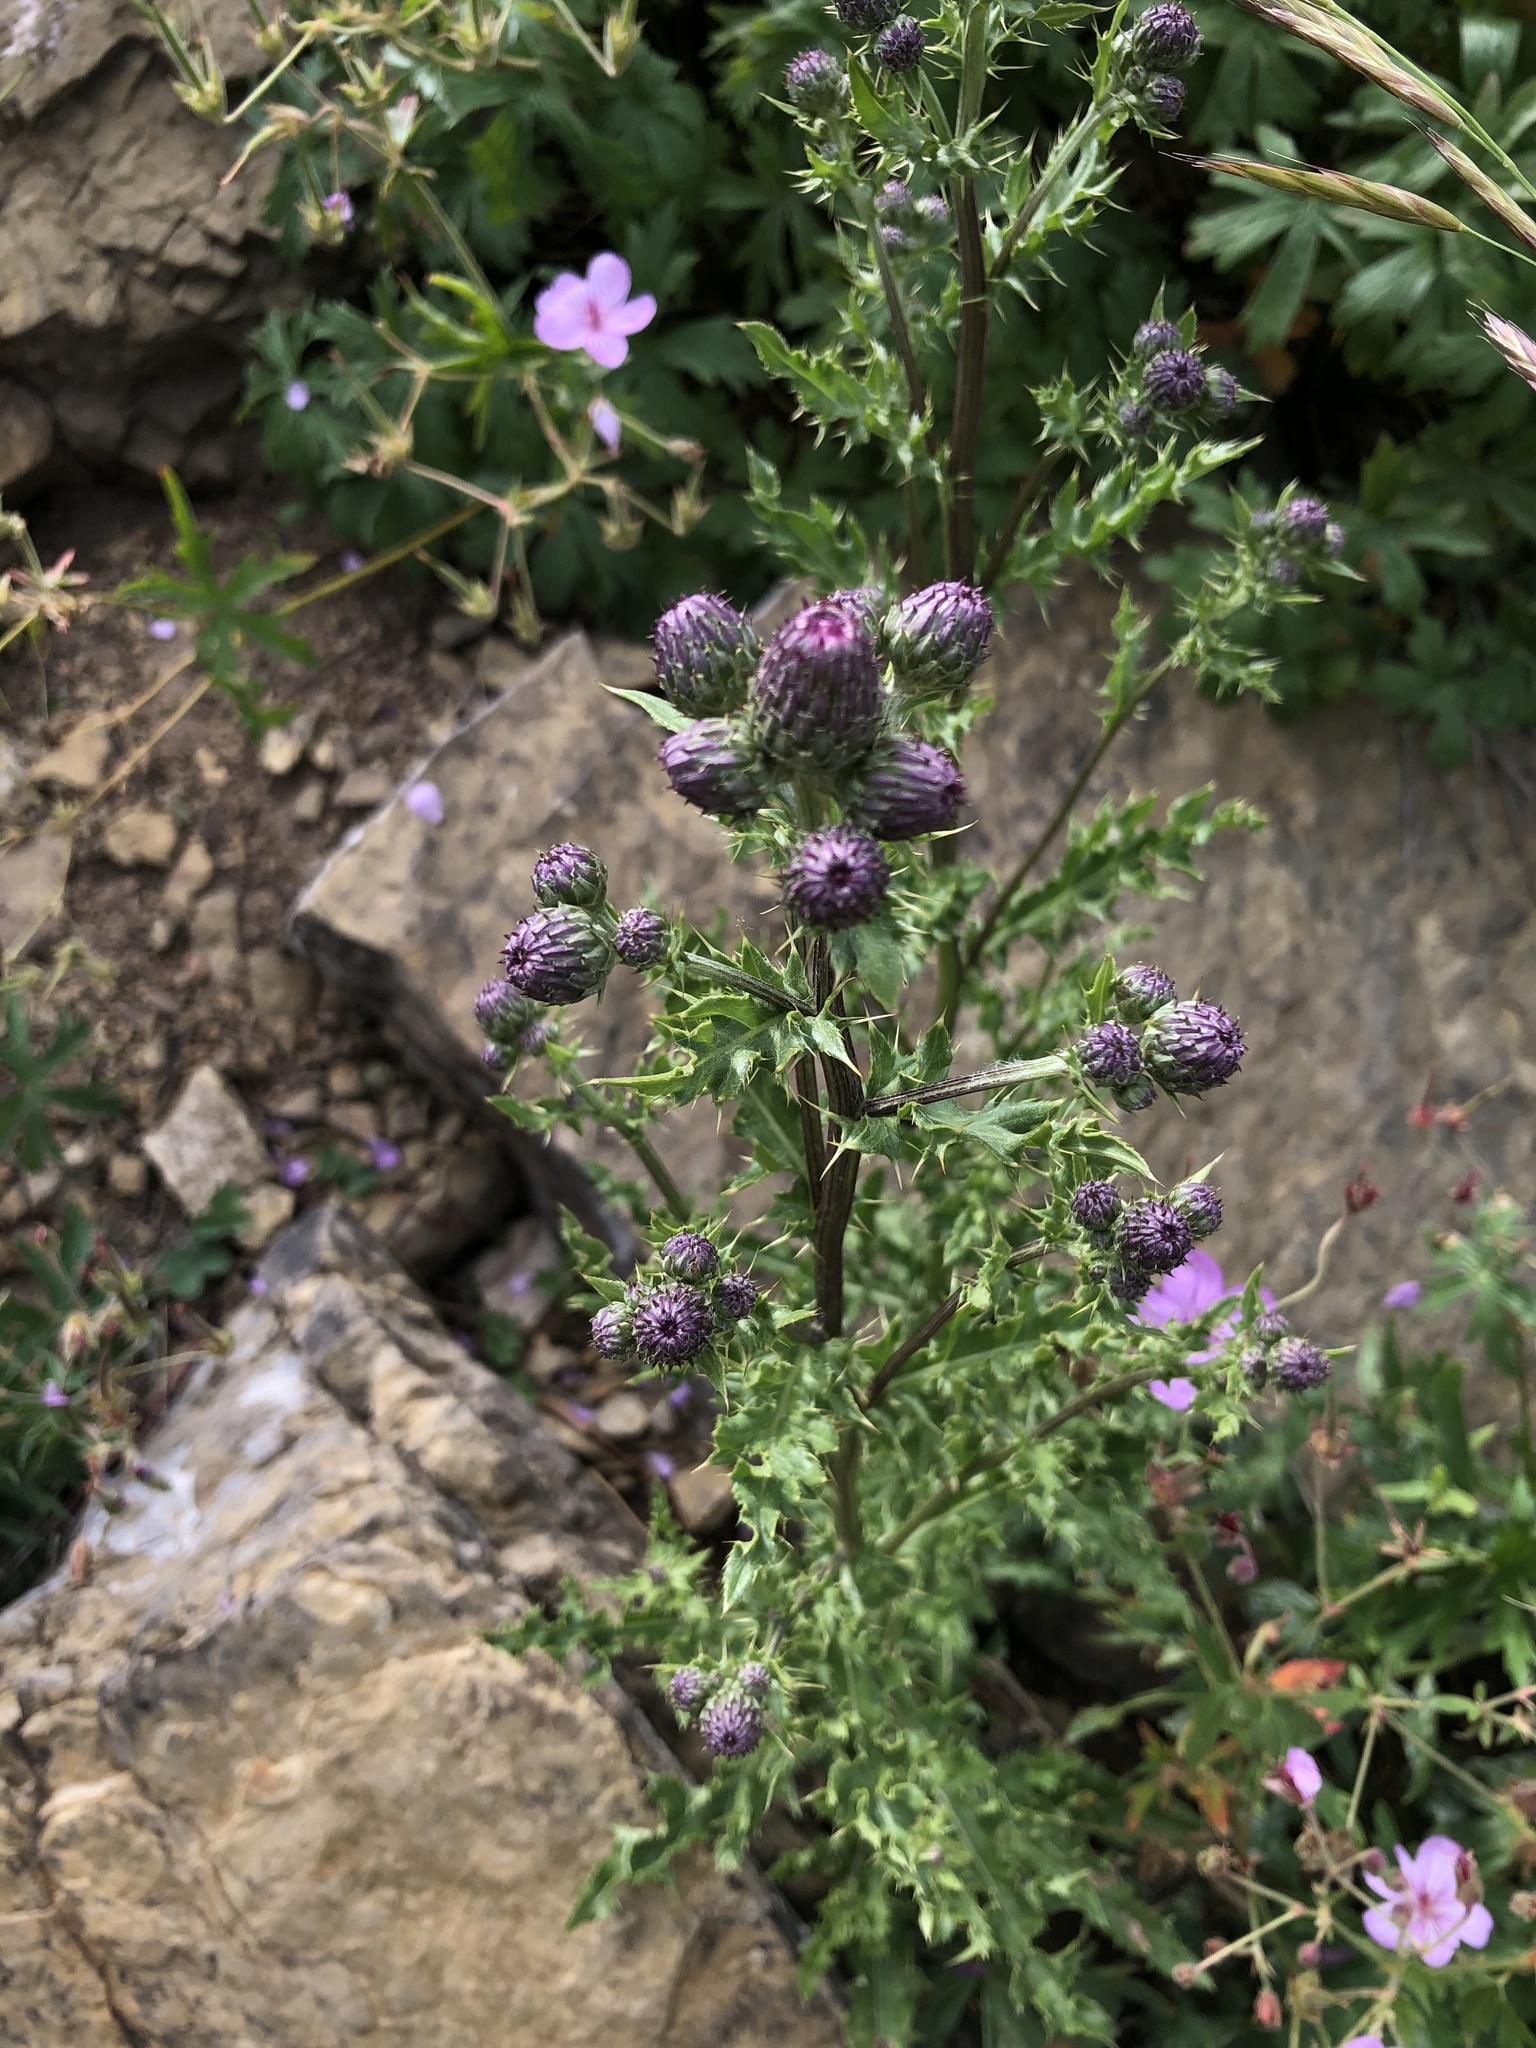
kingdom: Plantae
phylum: Tracheophyta
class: Magnoliopsida
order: Asterales
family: Asteraceae
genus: Cirsium
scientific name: Cirsium arvense
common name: Creeping thistle
